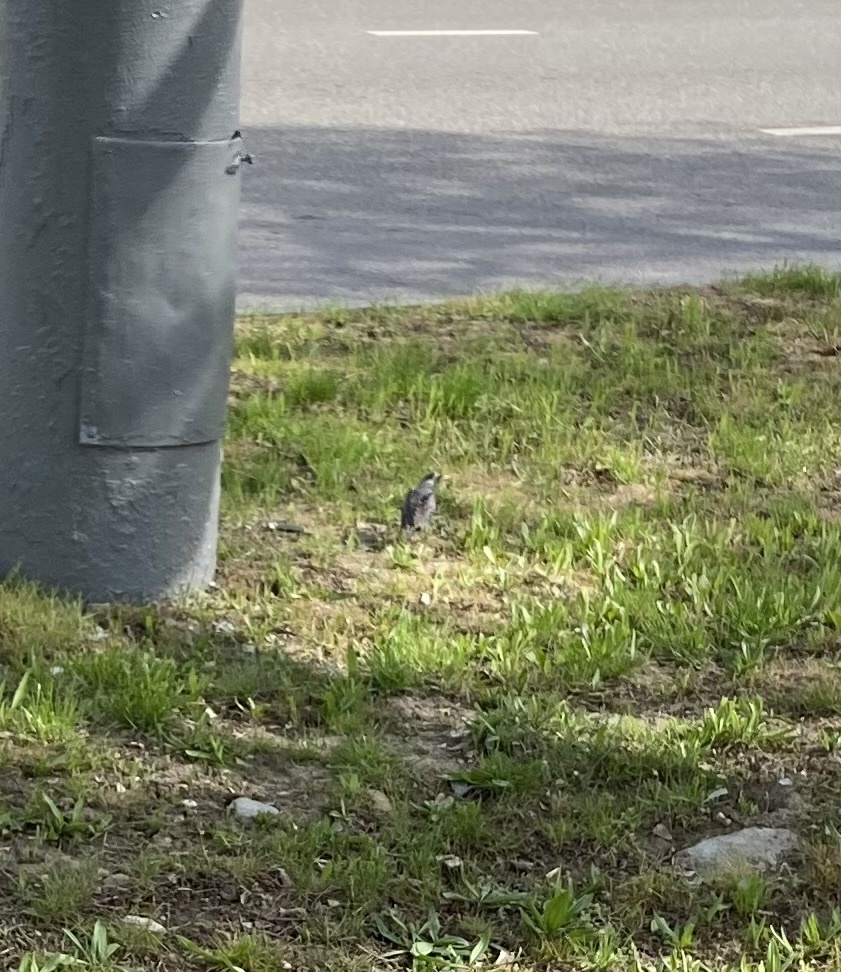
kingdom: Animalia
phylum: Chordata
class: Aves
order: Passeriformes
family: Sturnidae
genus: Sturnus
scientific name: Sturnus vulgaris
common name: Common starling
